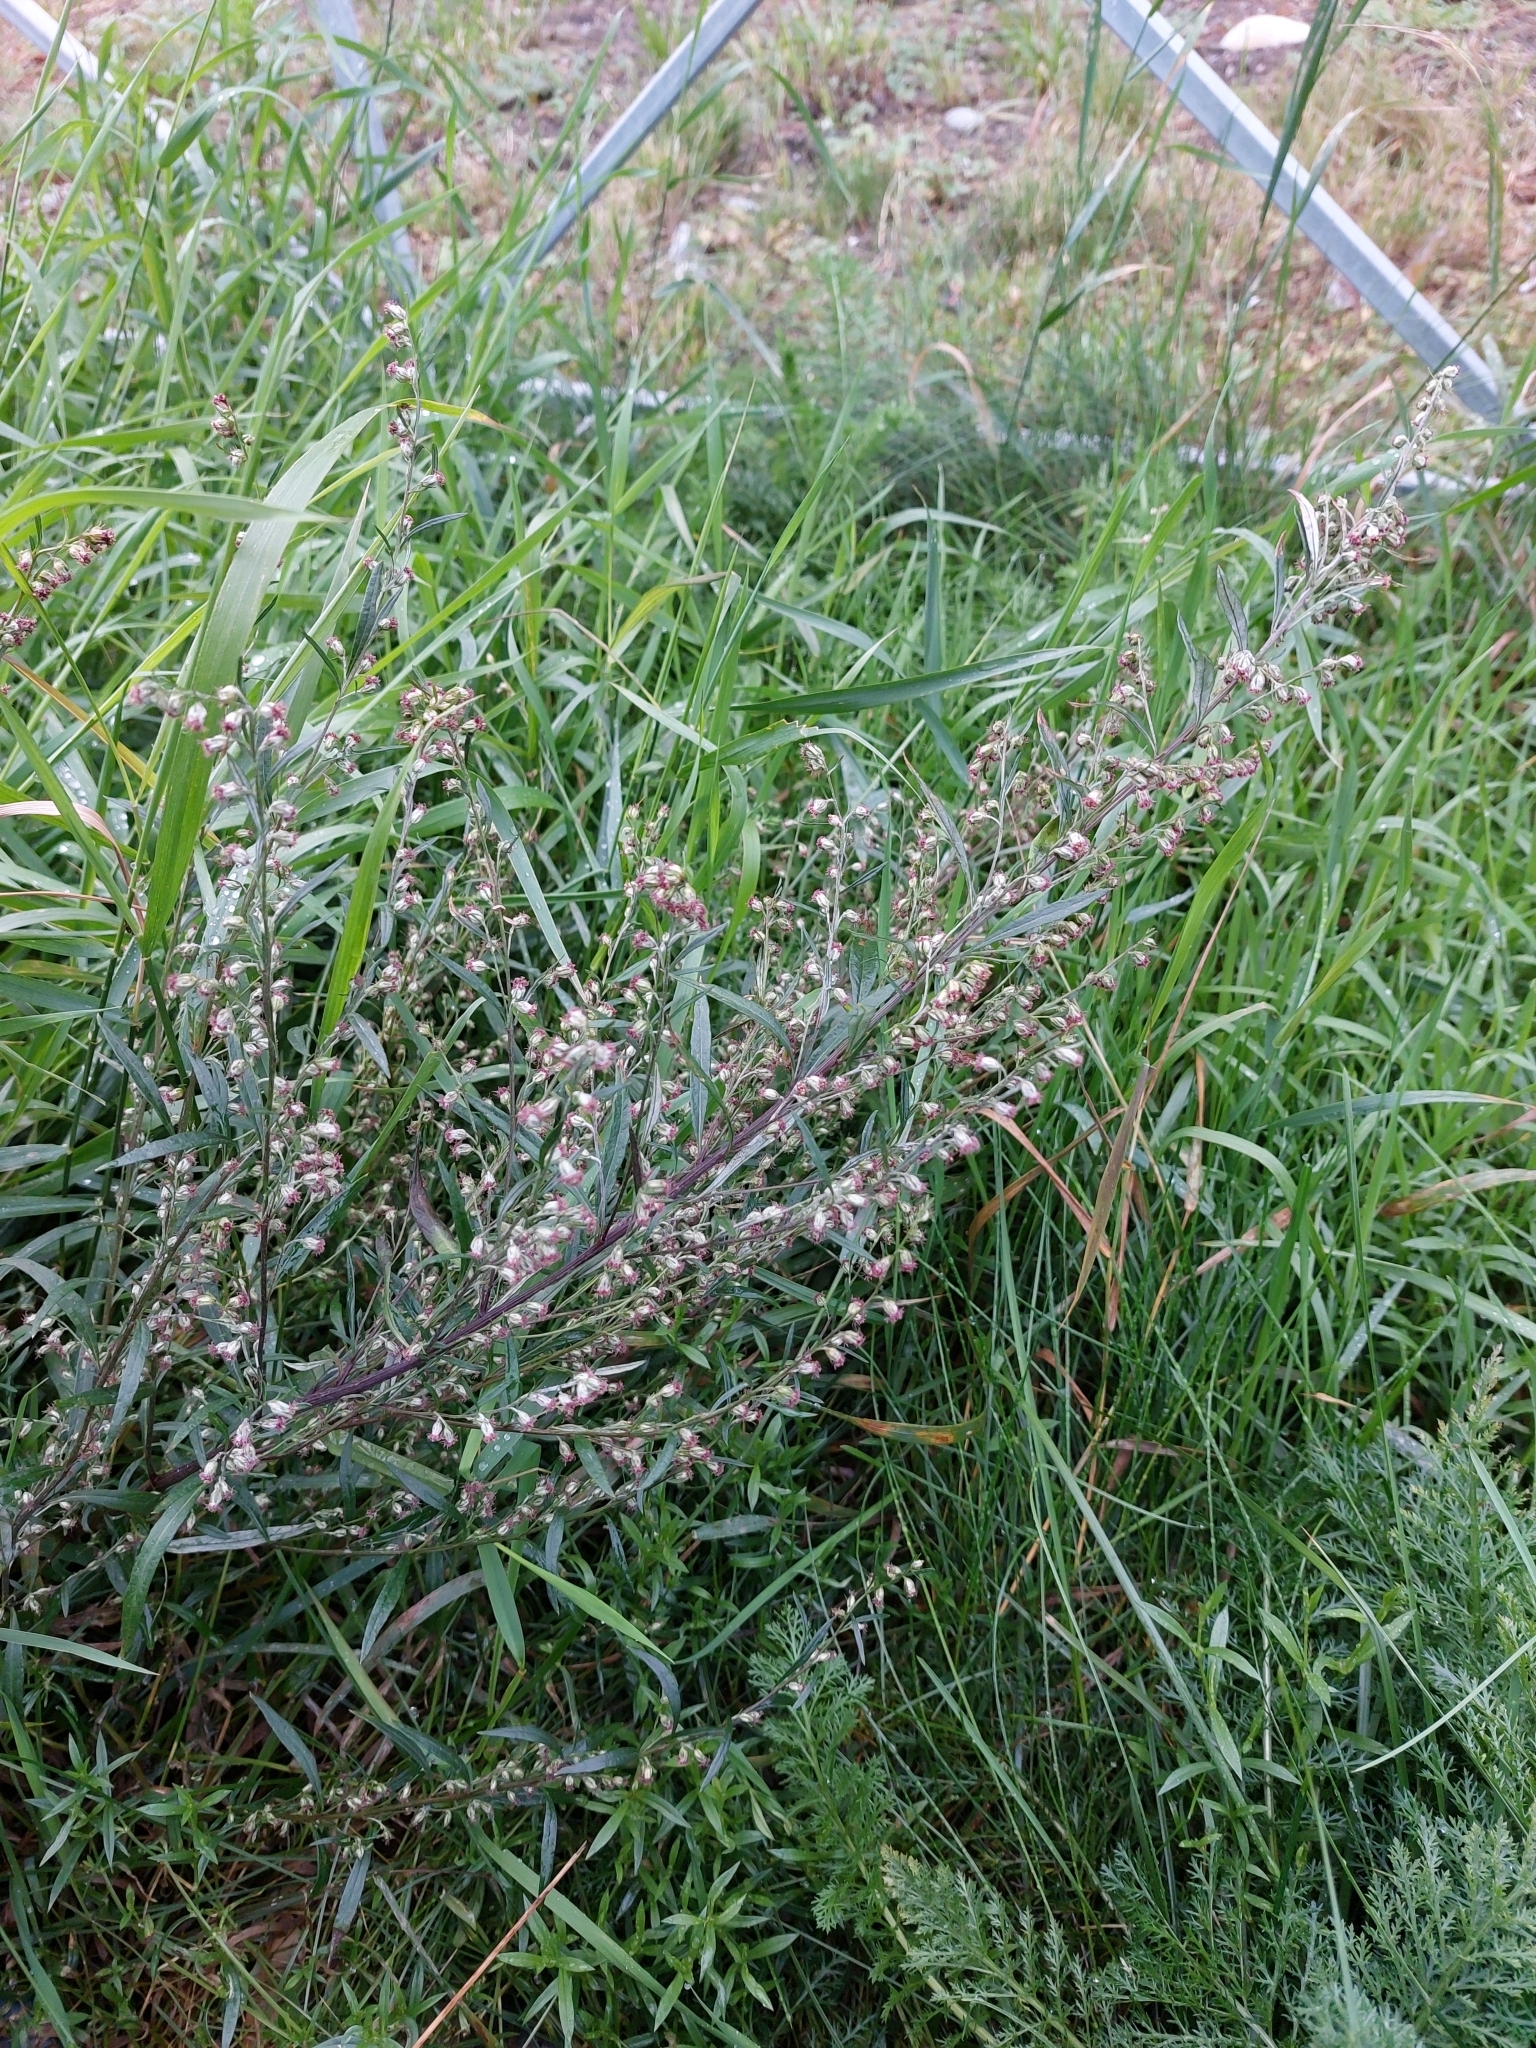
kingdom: Plantae
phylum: Tracheophyta
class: Magnoliopsida
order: Asterales
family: Asteraceae
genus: Artemisia
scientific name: Artemisia vulgaris
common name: Mugwort
